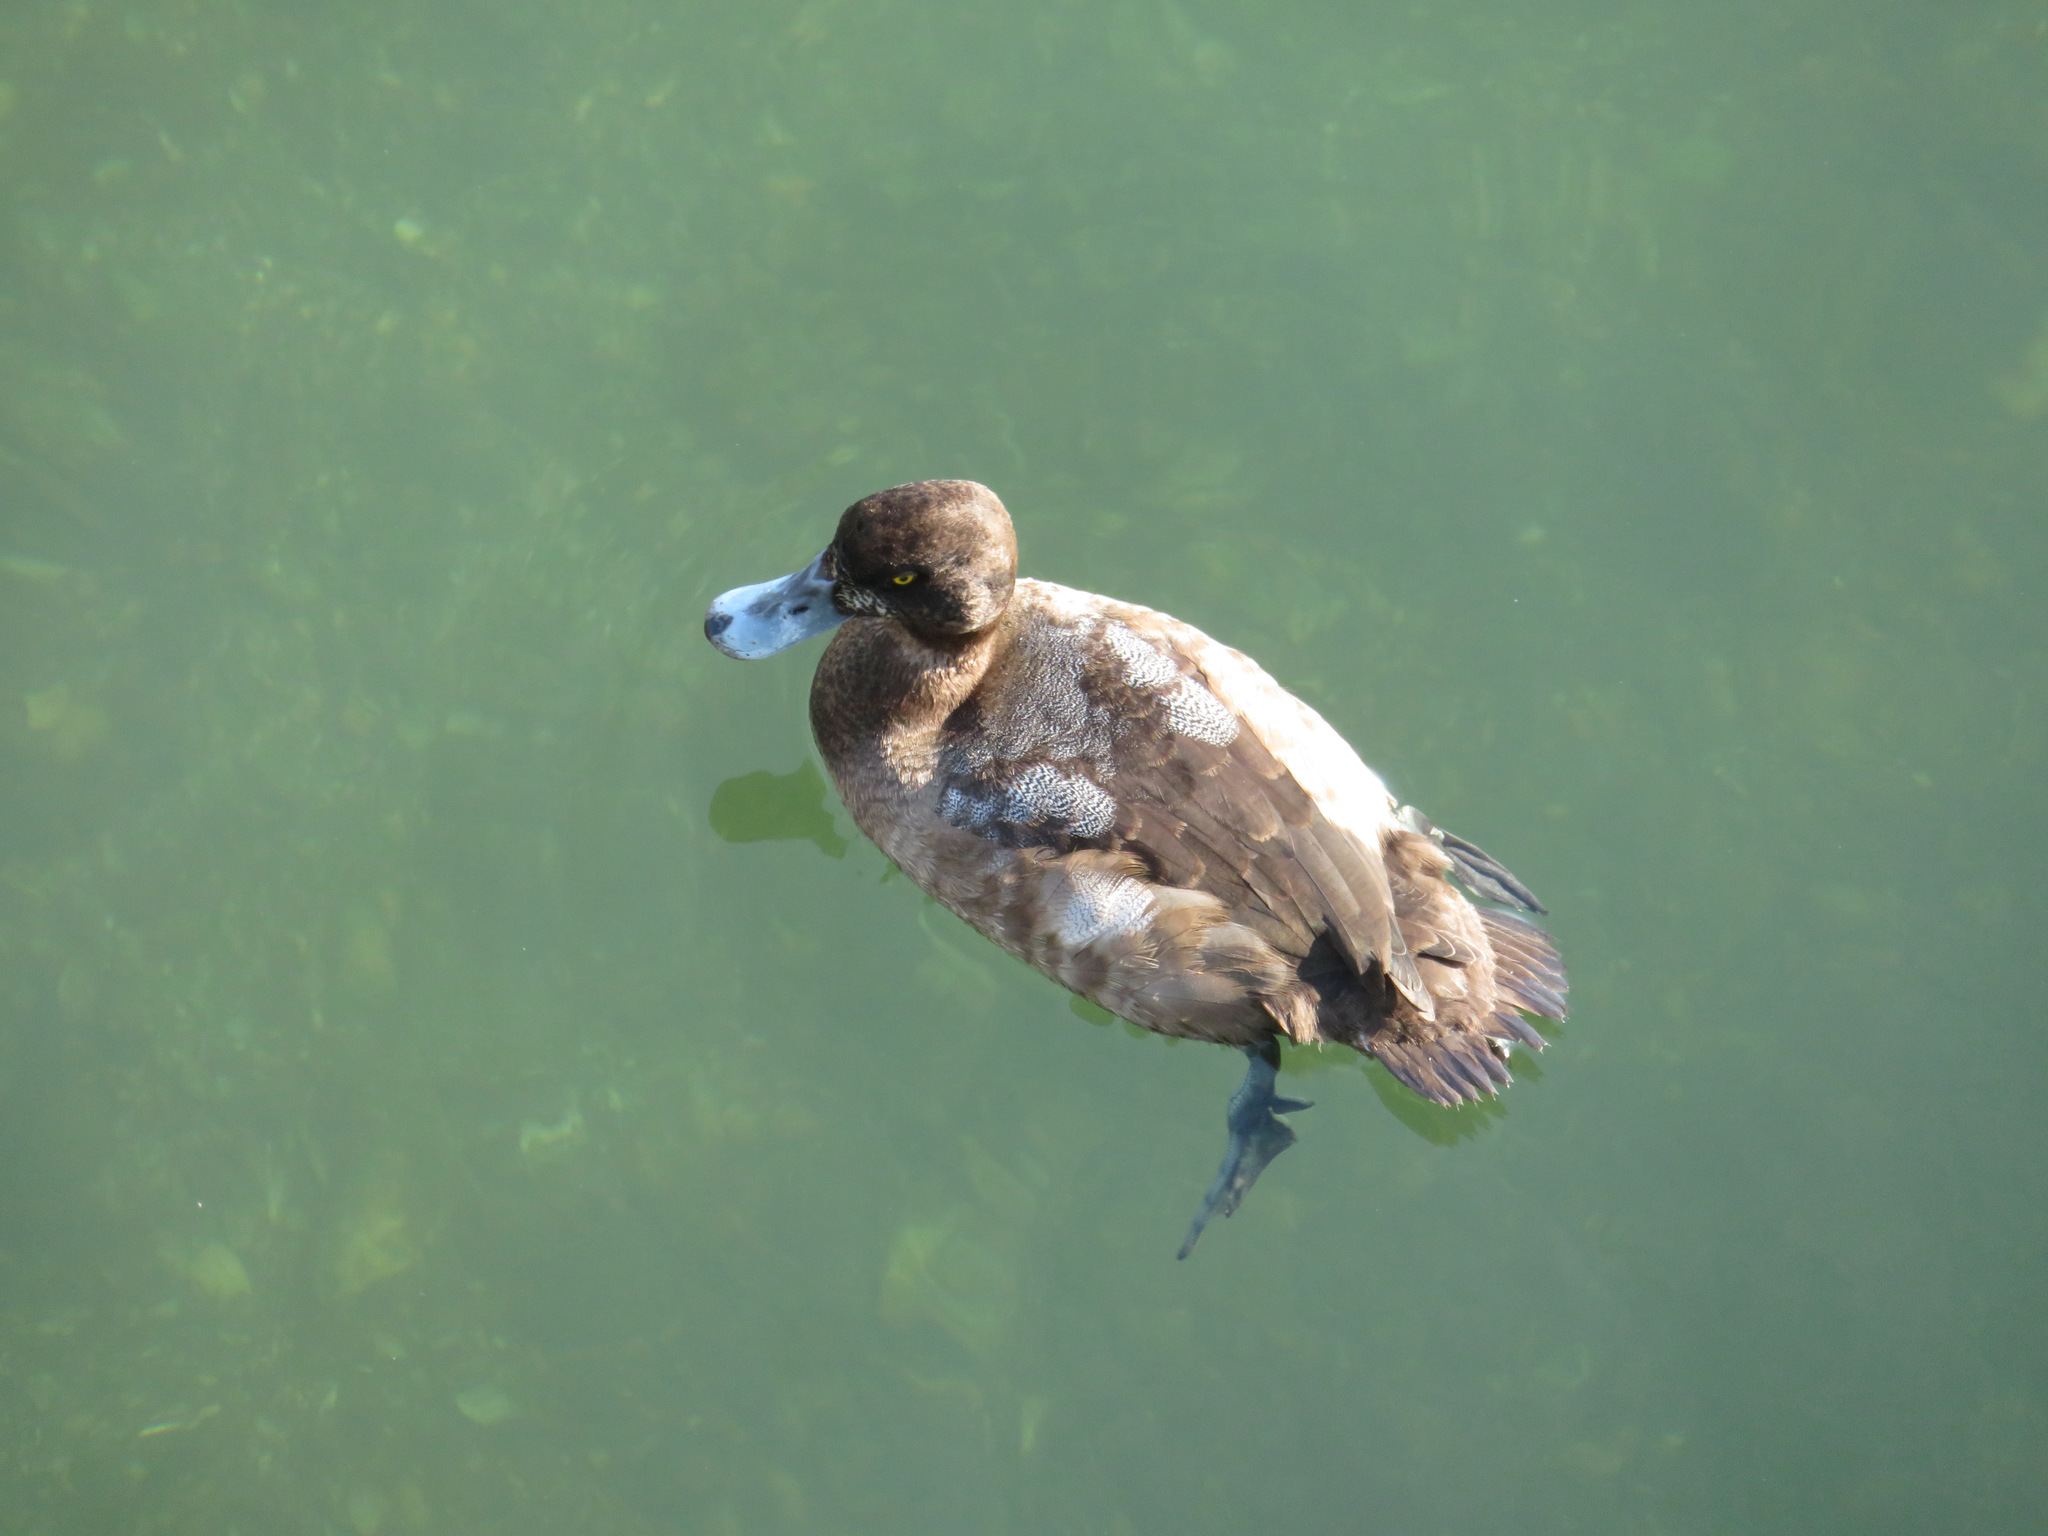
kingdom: Animalia
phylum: Chordata
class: Aves
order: Anseriformes
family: Anatidae
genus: Aythya
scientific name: Aythya marila
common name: Greater scaup
